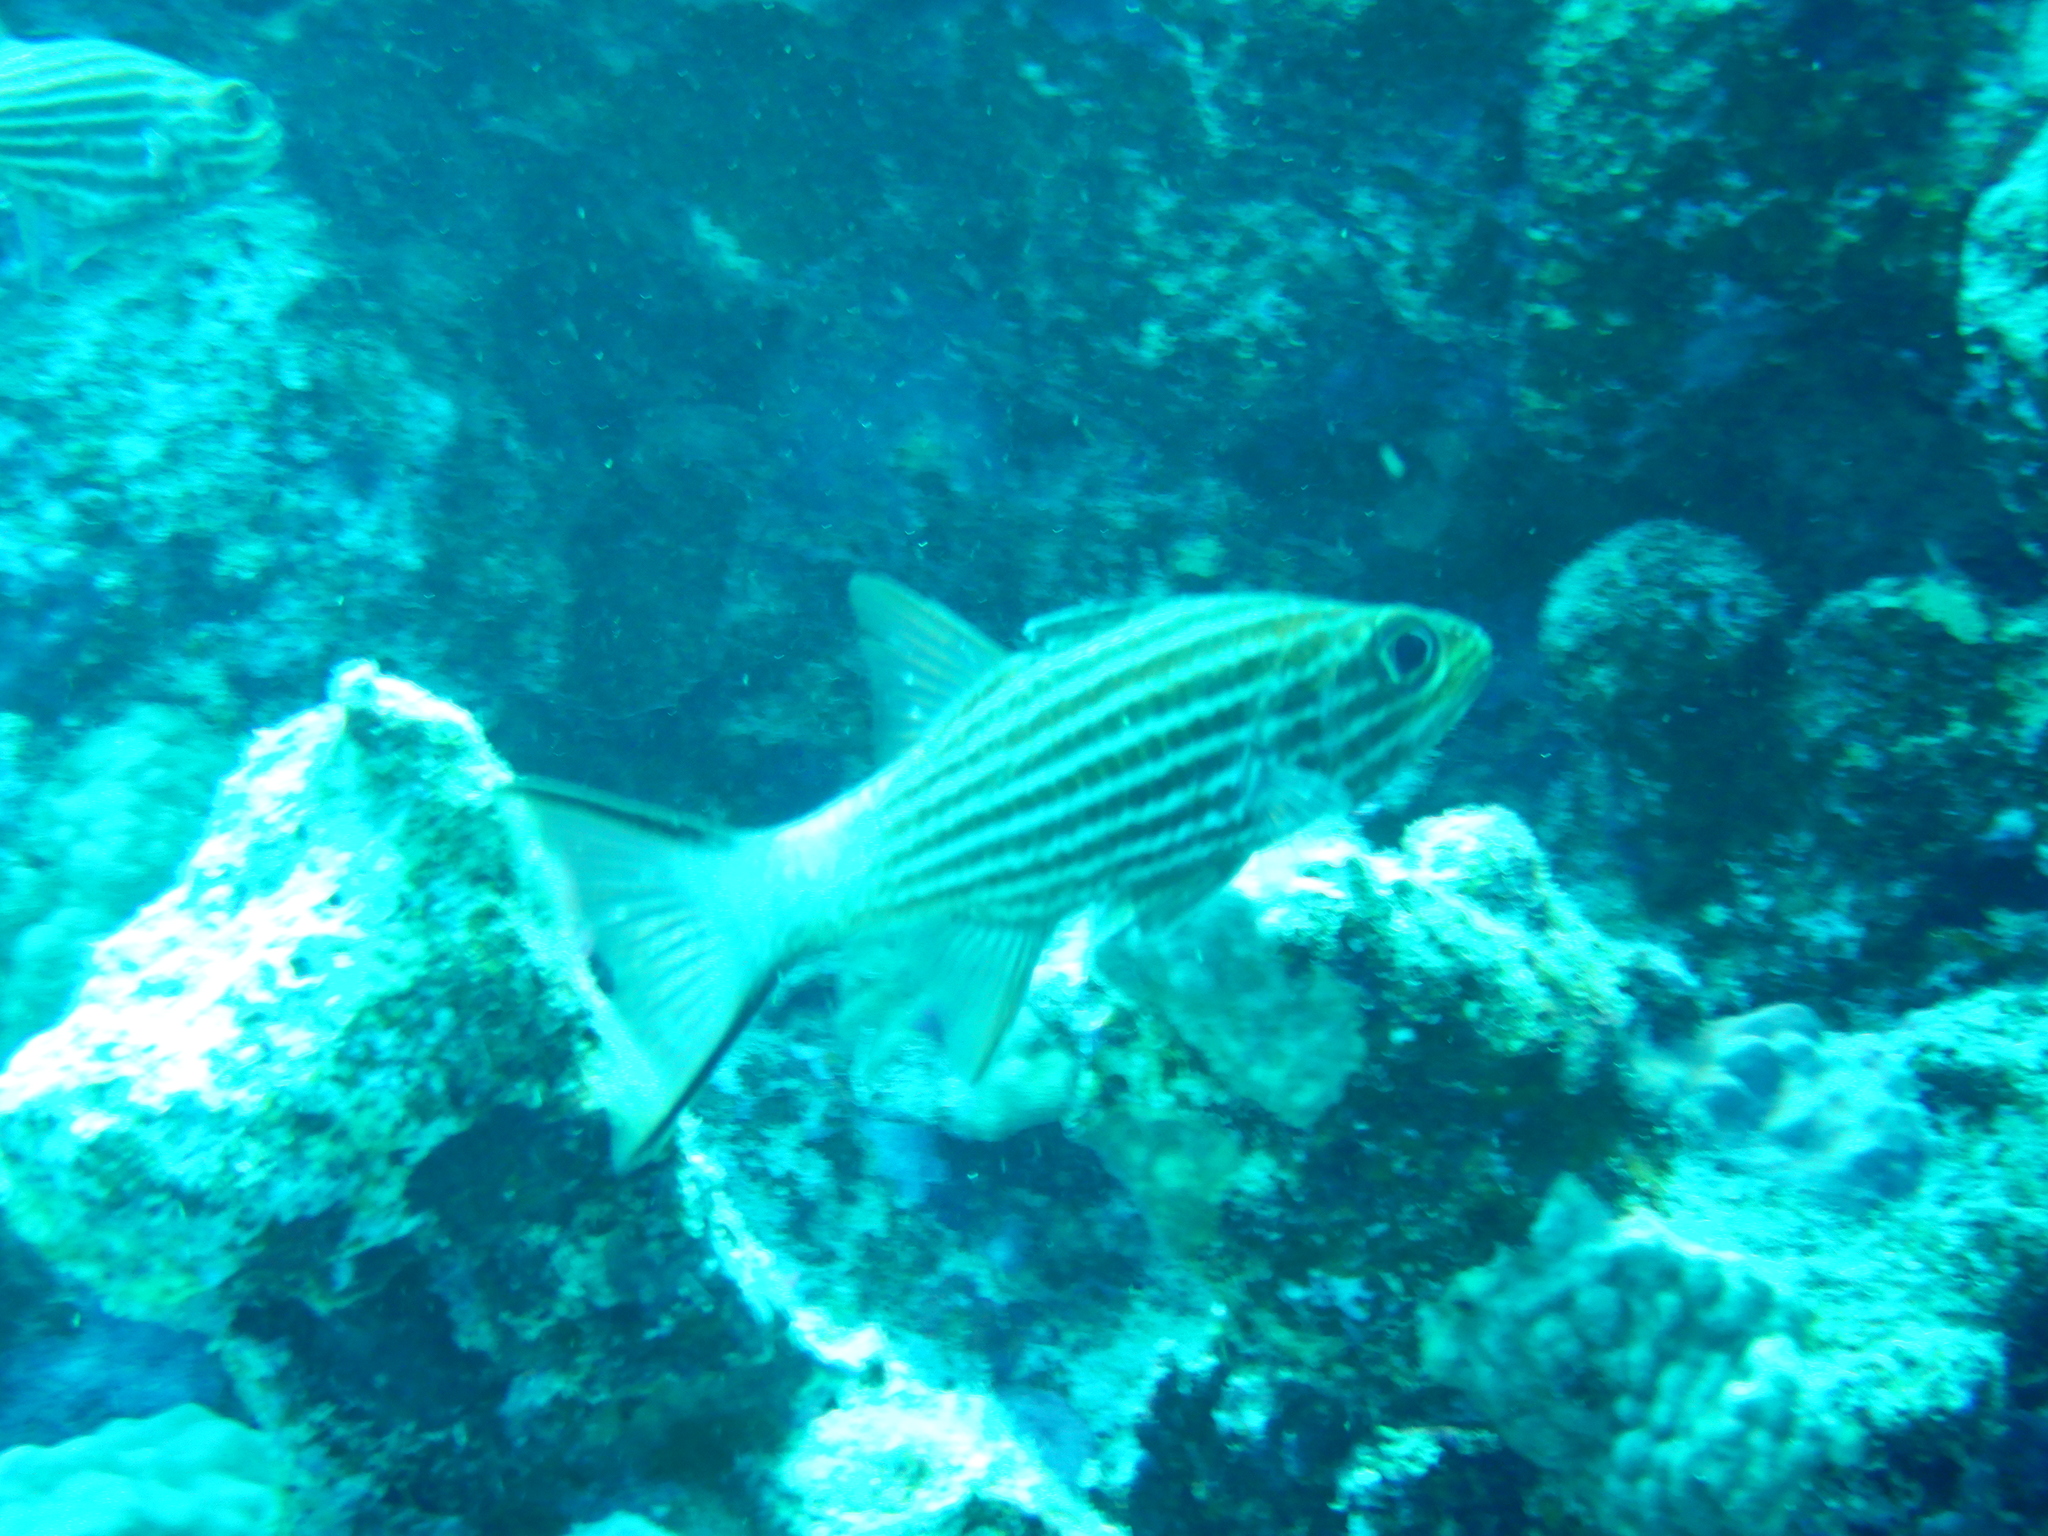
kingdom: Animalia
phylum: Chordata
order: Perciformes
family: Apogonidae
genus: Cheilodipterus
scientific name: Cheilodipterus macrodon
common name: Eight-lined cardinalfish
